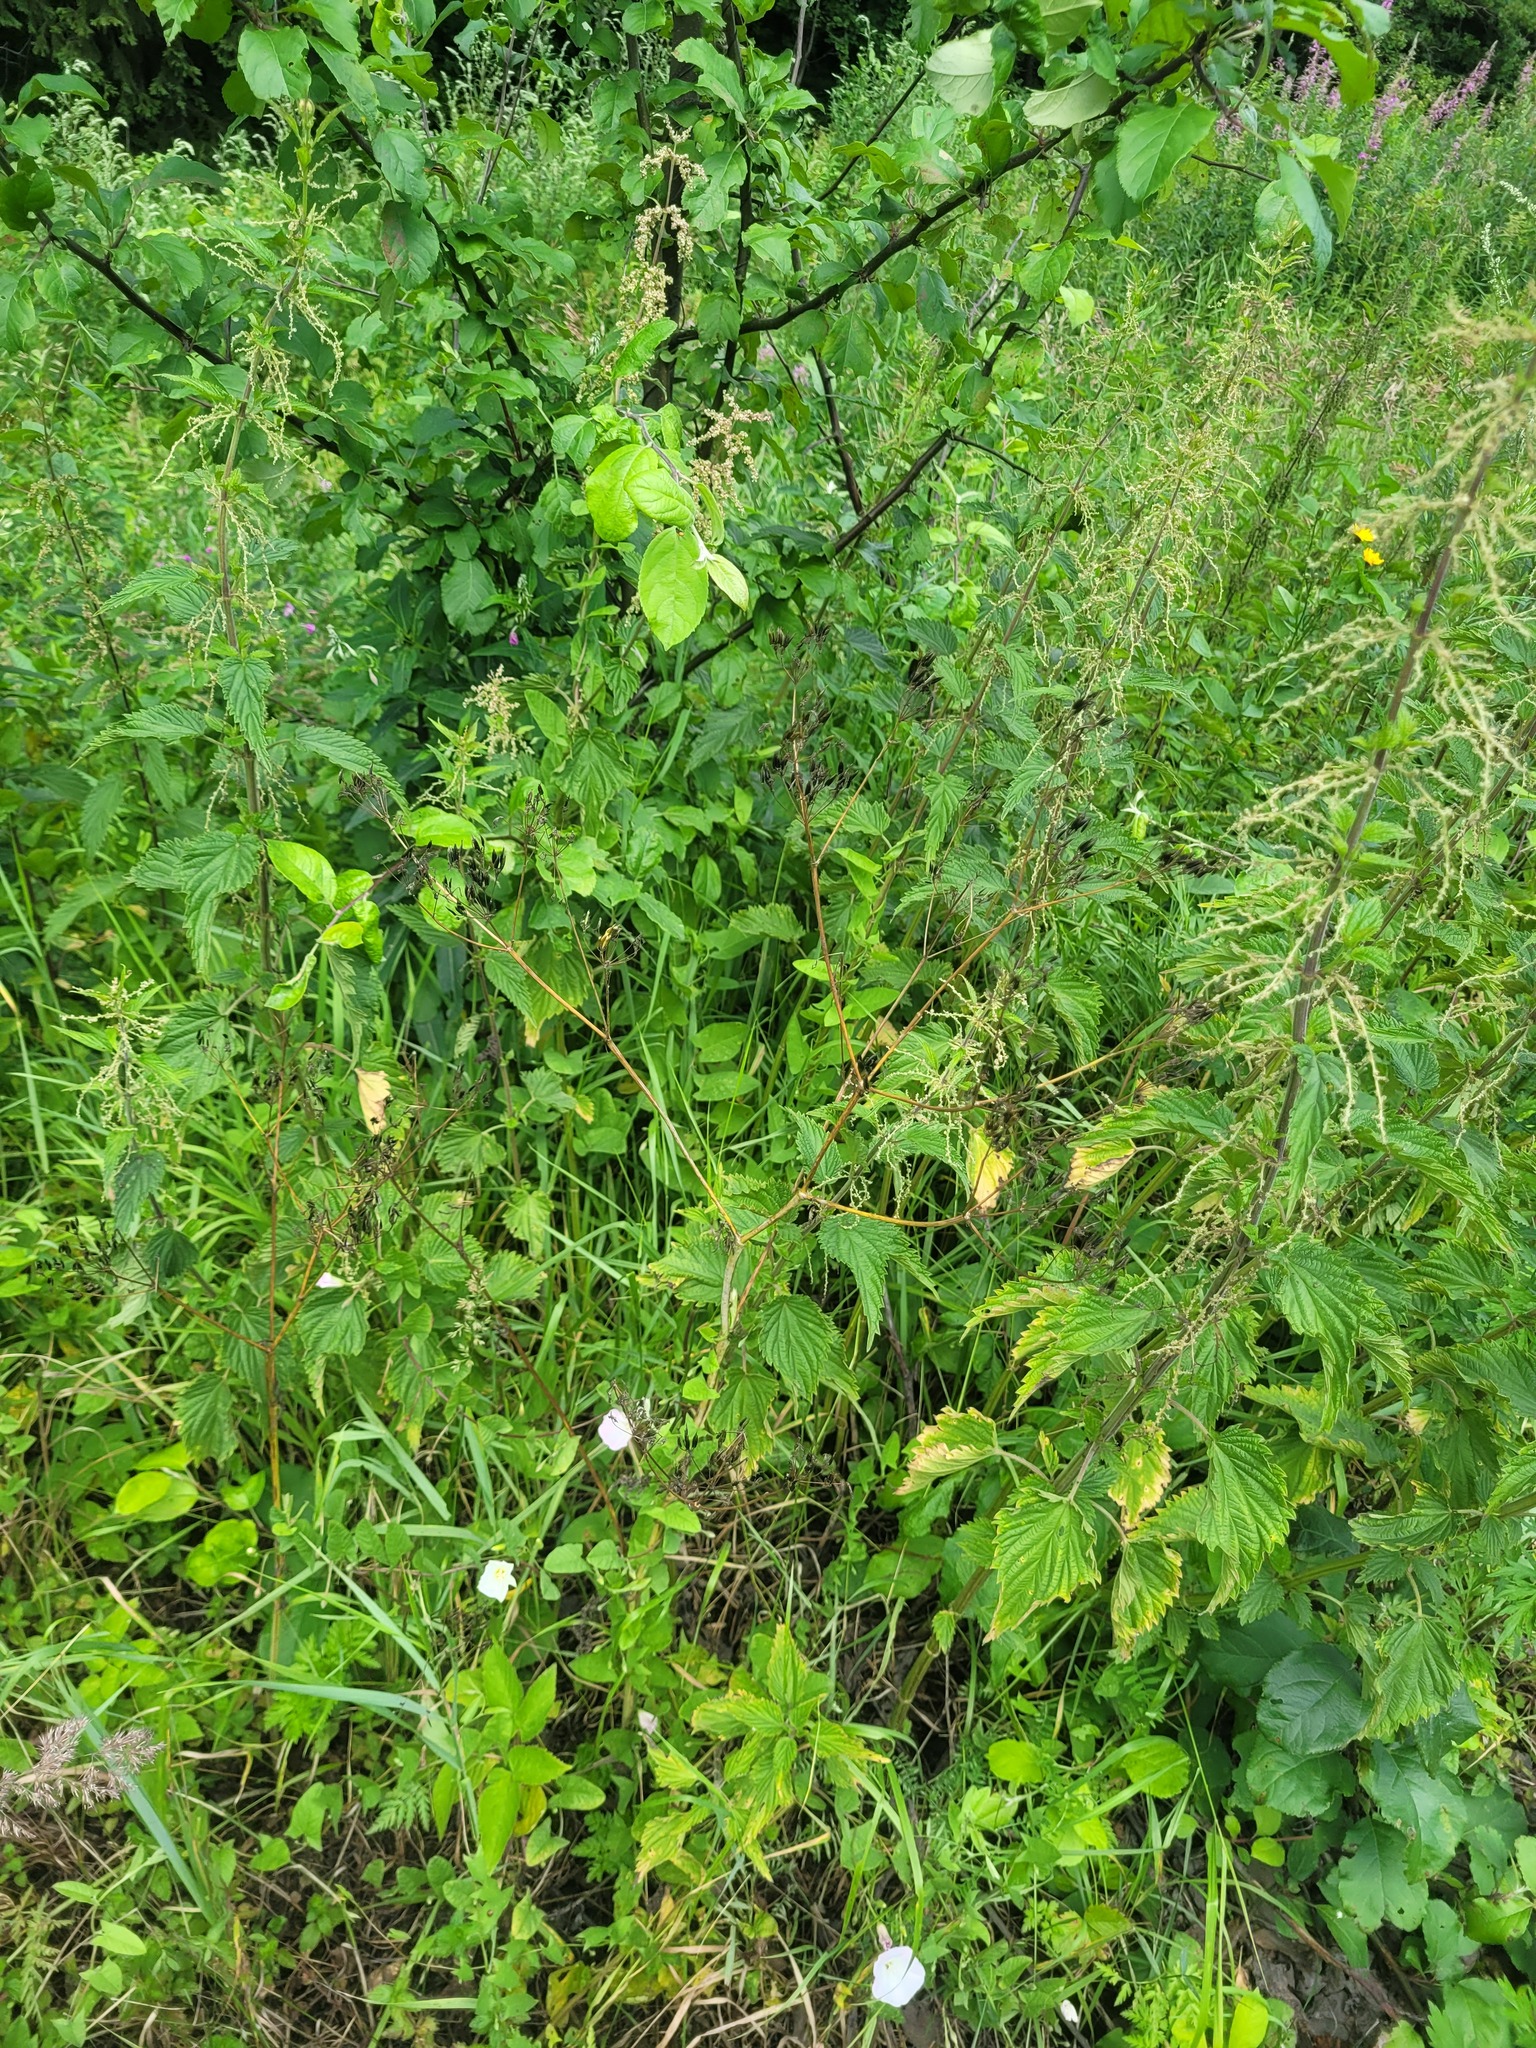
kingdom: Plantae
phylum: Tracheophyta
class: Magnoliopsida
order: Apiales
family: Apiaceae
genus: Anthriscus
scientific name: Anthriscus sylvestris
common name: Cow parsley
